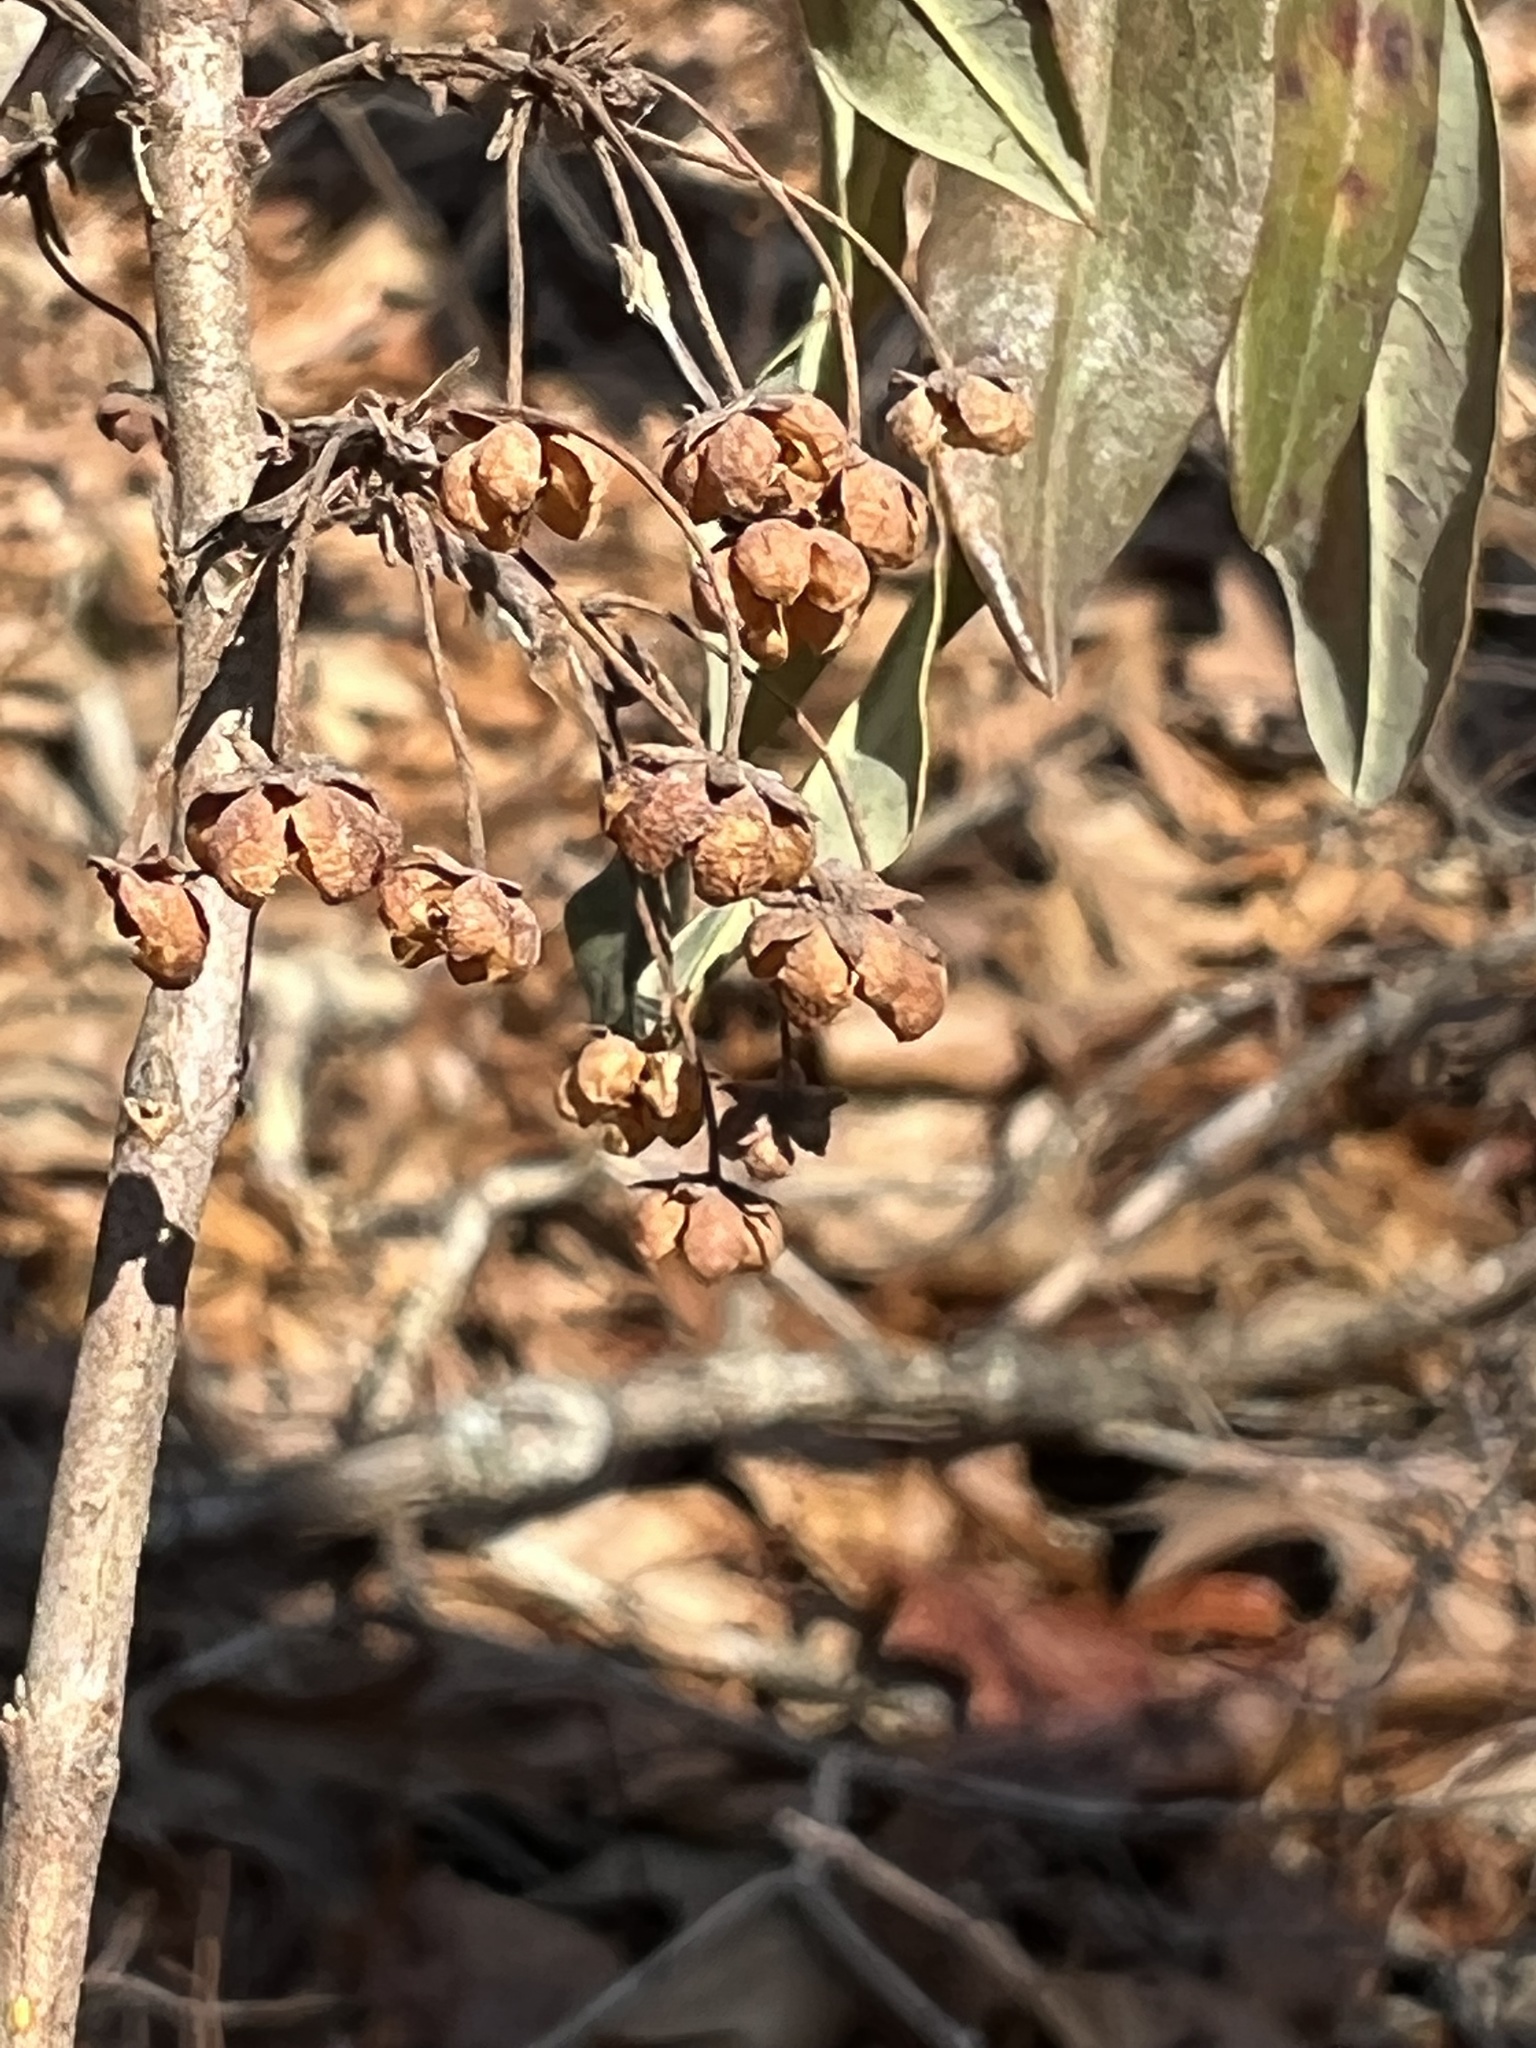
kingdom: Plantae
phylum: Tracheophyta
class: Magnoliopsida
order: Ericales
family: Ericaceae
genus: Kalmia
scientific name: Kalmia angustifolia
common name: Sheep-laurel
